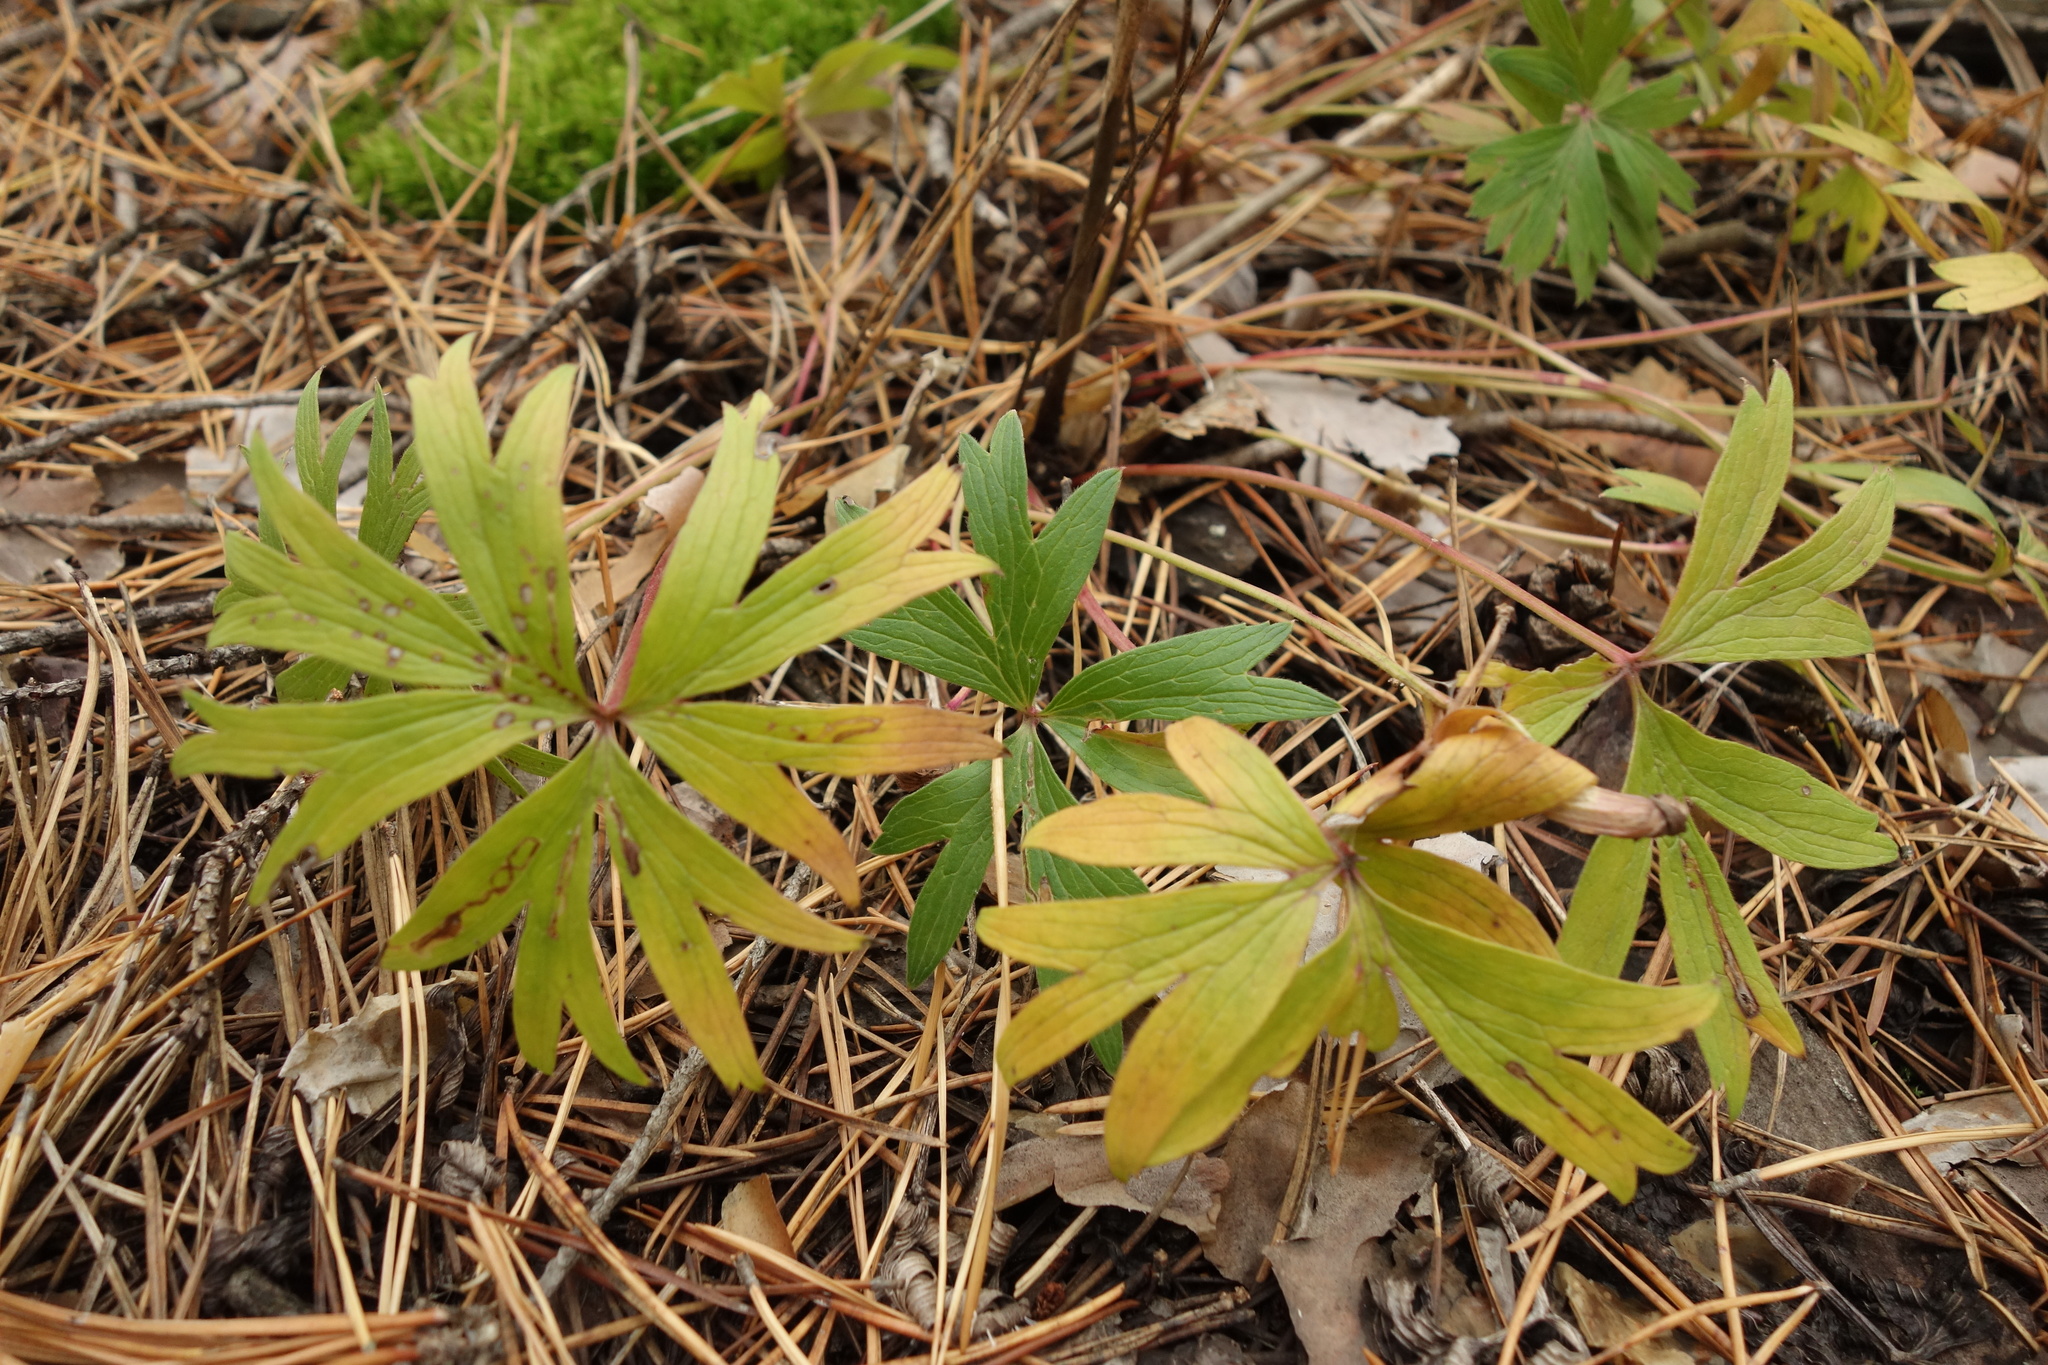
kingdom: Plantae
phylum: Tracheophyta
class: Magnoliopsida
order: Ranunculales
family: Ranunculaceae
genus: Pulsatilla
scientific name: Pulsatilla patens
